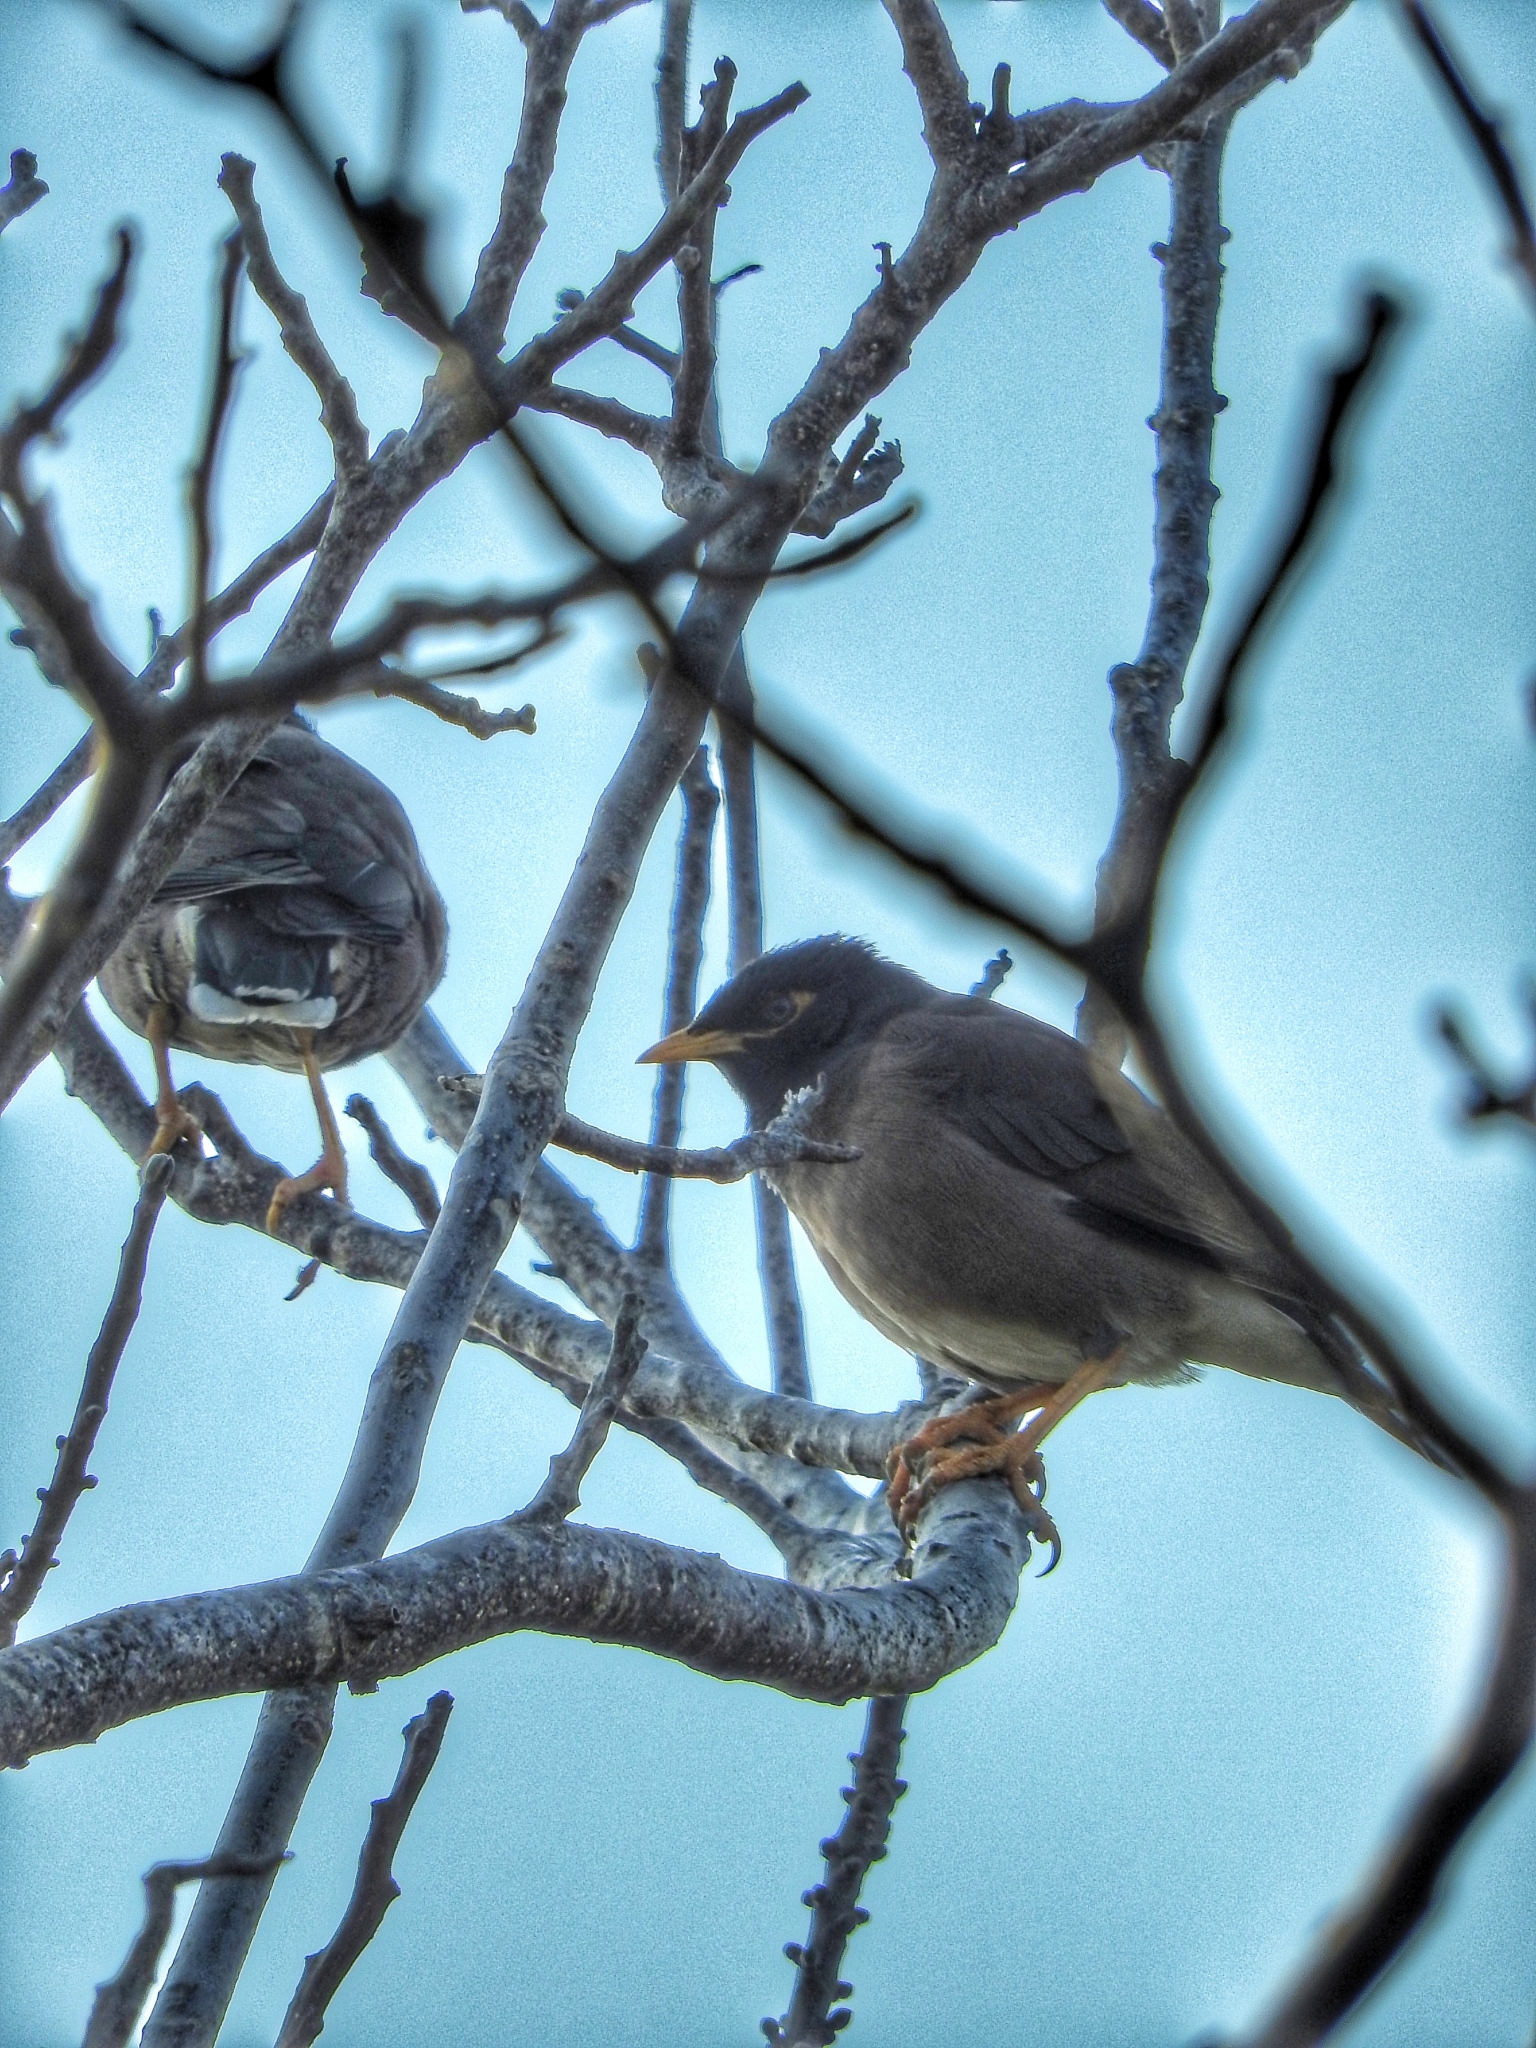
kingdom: Animalia
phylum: Chordata
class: Aves
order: Passeriformes
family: Sturnidae
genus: Acridotheres
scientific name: Acridotheres tristis
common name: Common myna
